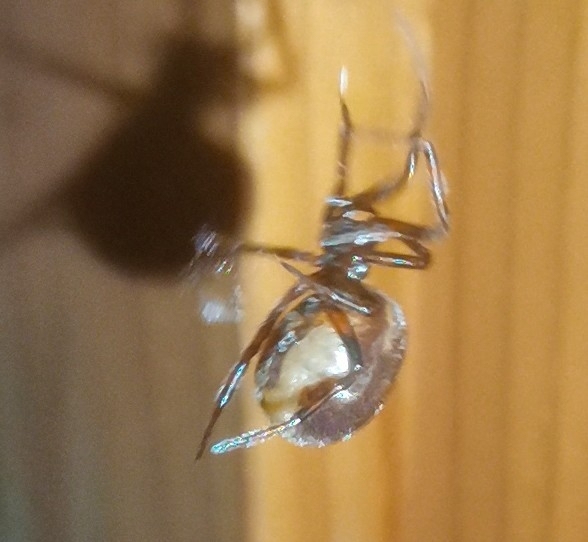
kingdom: Animalia
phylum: Arthropoda
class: Arachnida
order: Araneae
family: Theridiidae
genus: Steatoda
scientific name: Steatoda bipunctata
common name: False widow
